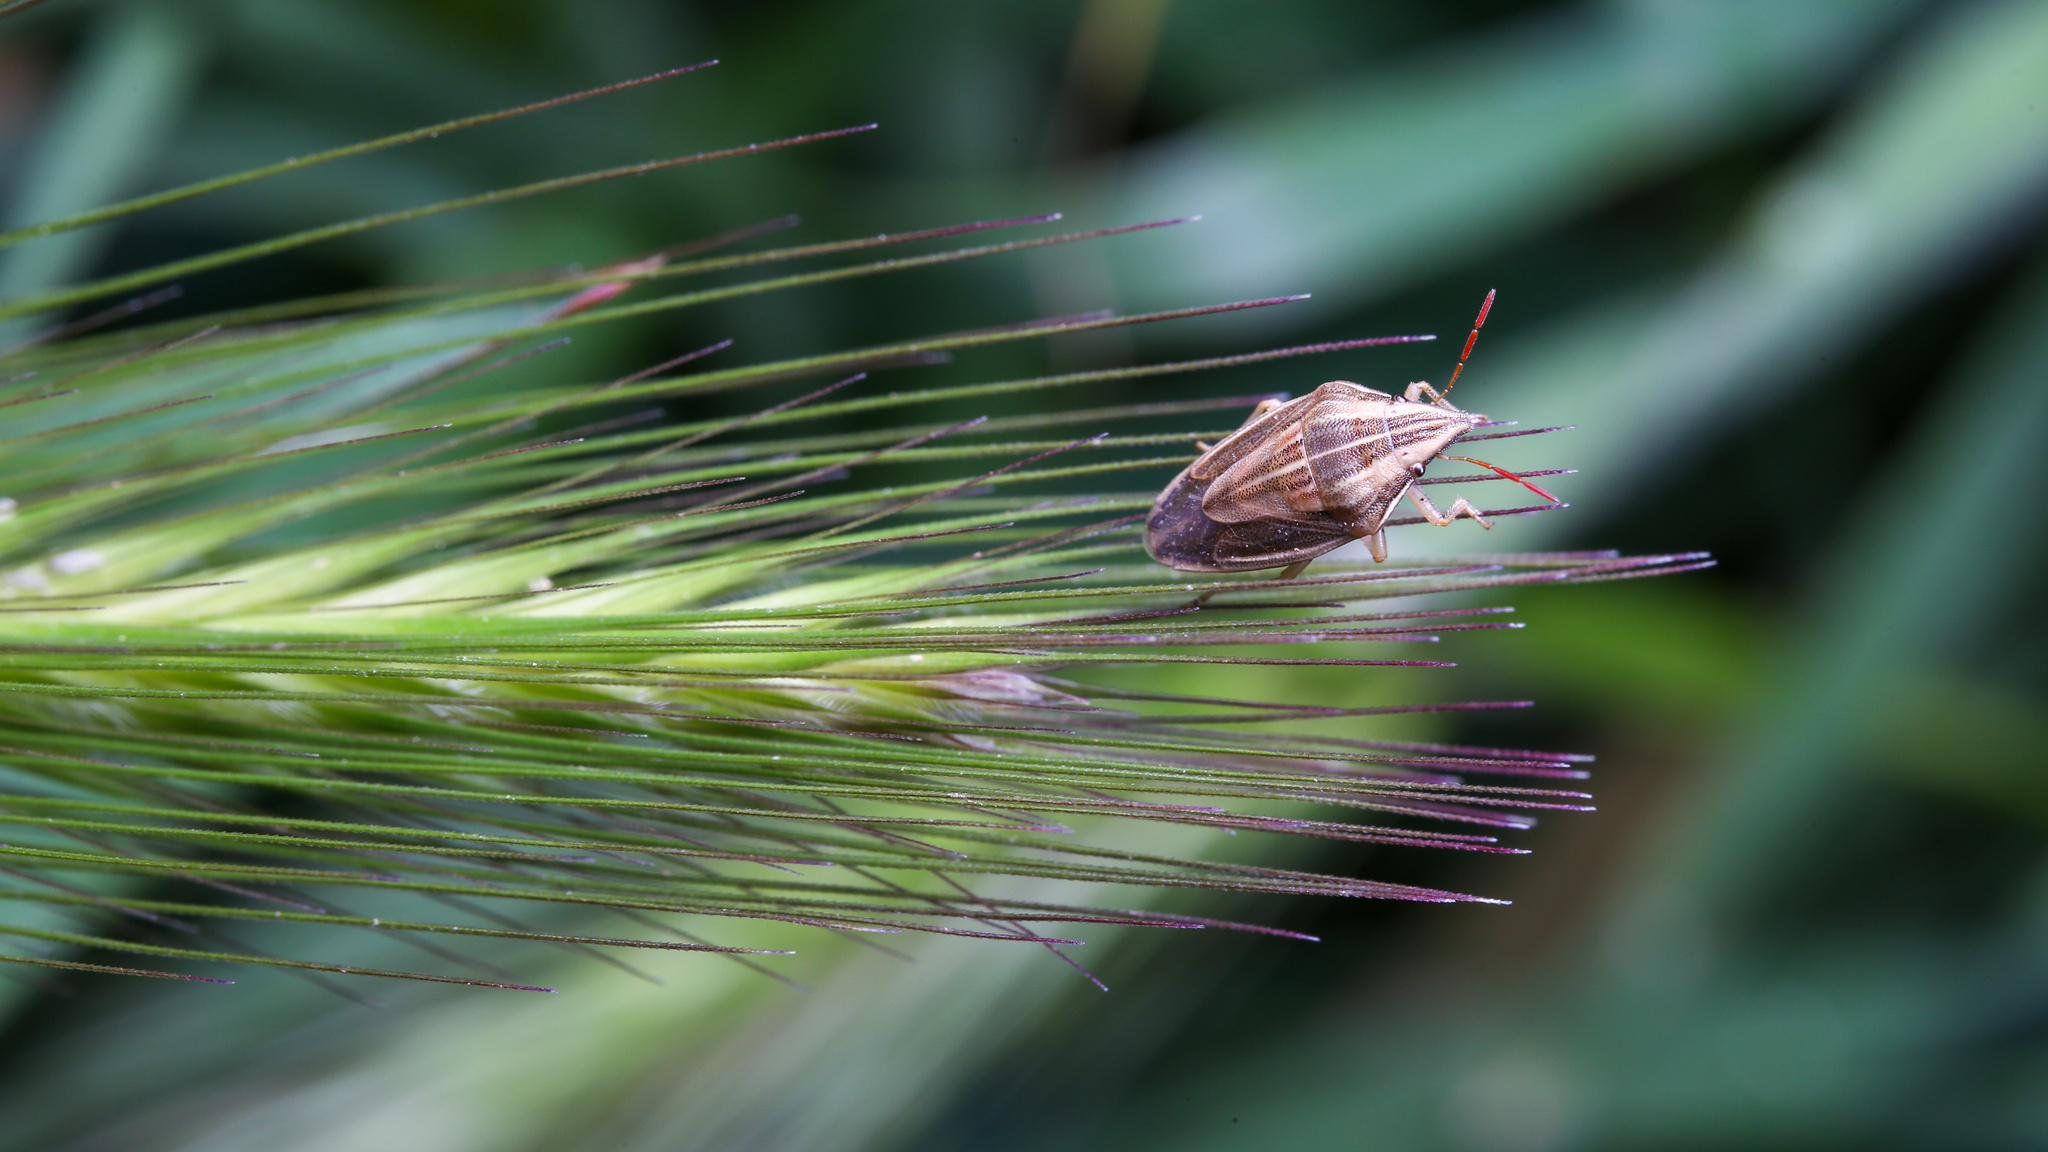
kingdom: Animalia
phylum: Arthropoda
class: Insecta
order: Hemiptera
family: Pentatomidae
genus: Aelia
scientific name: Aelia acuminata
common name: Bishop's mitre
